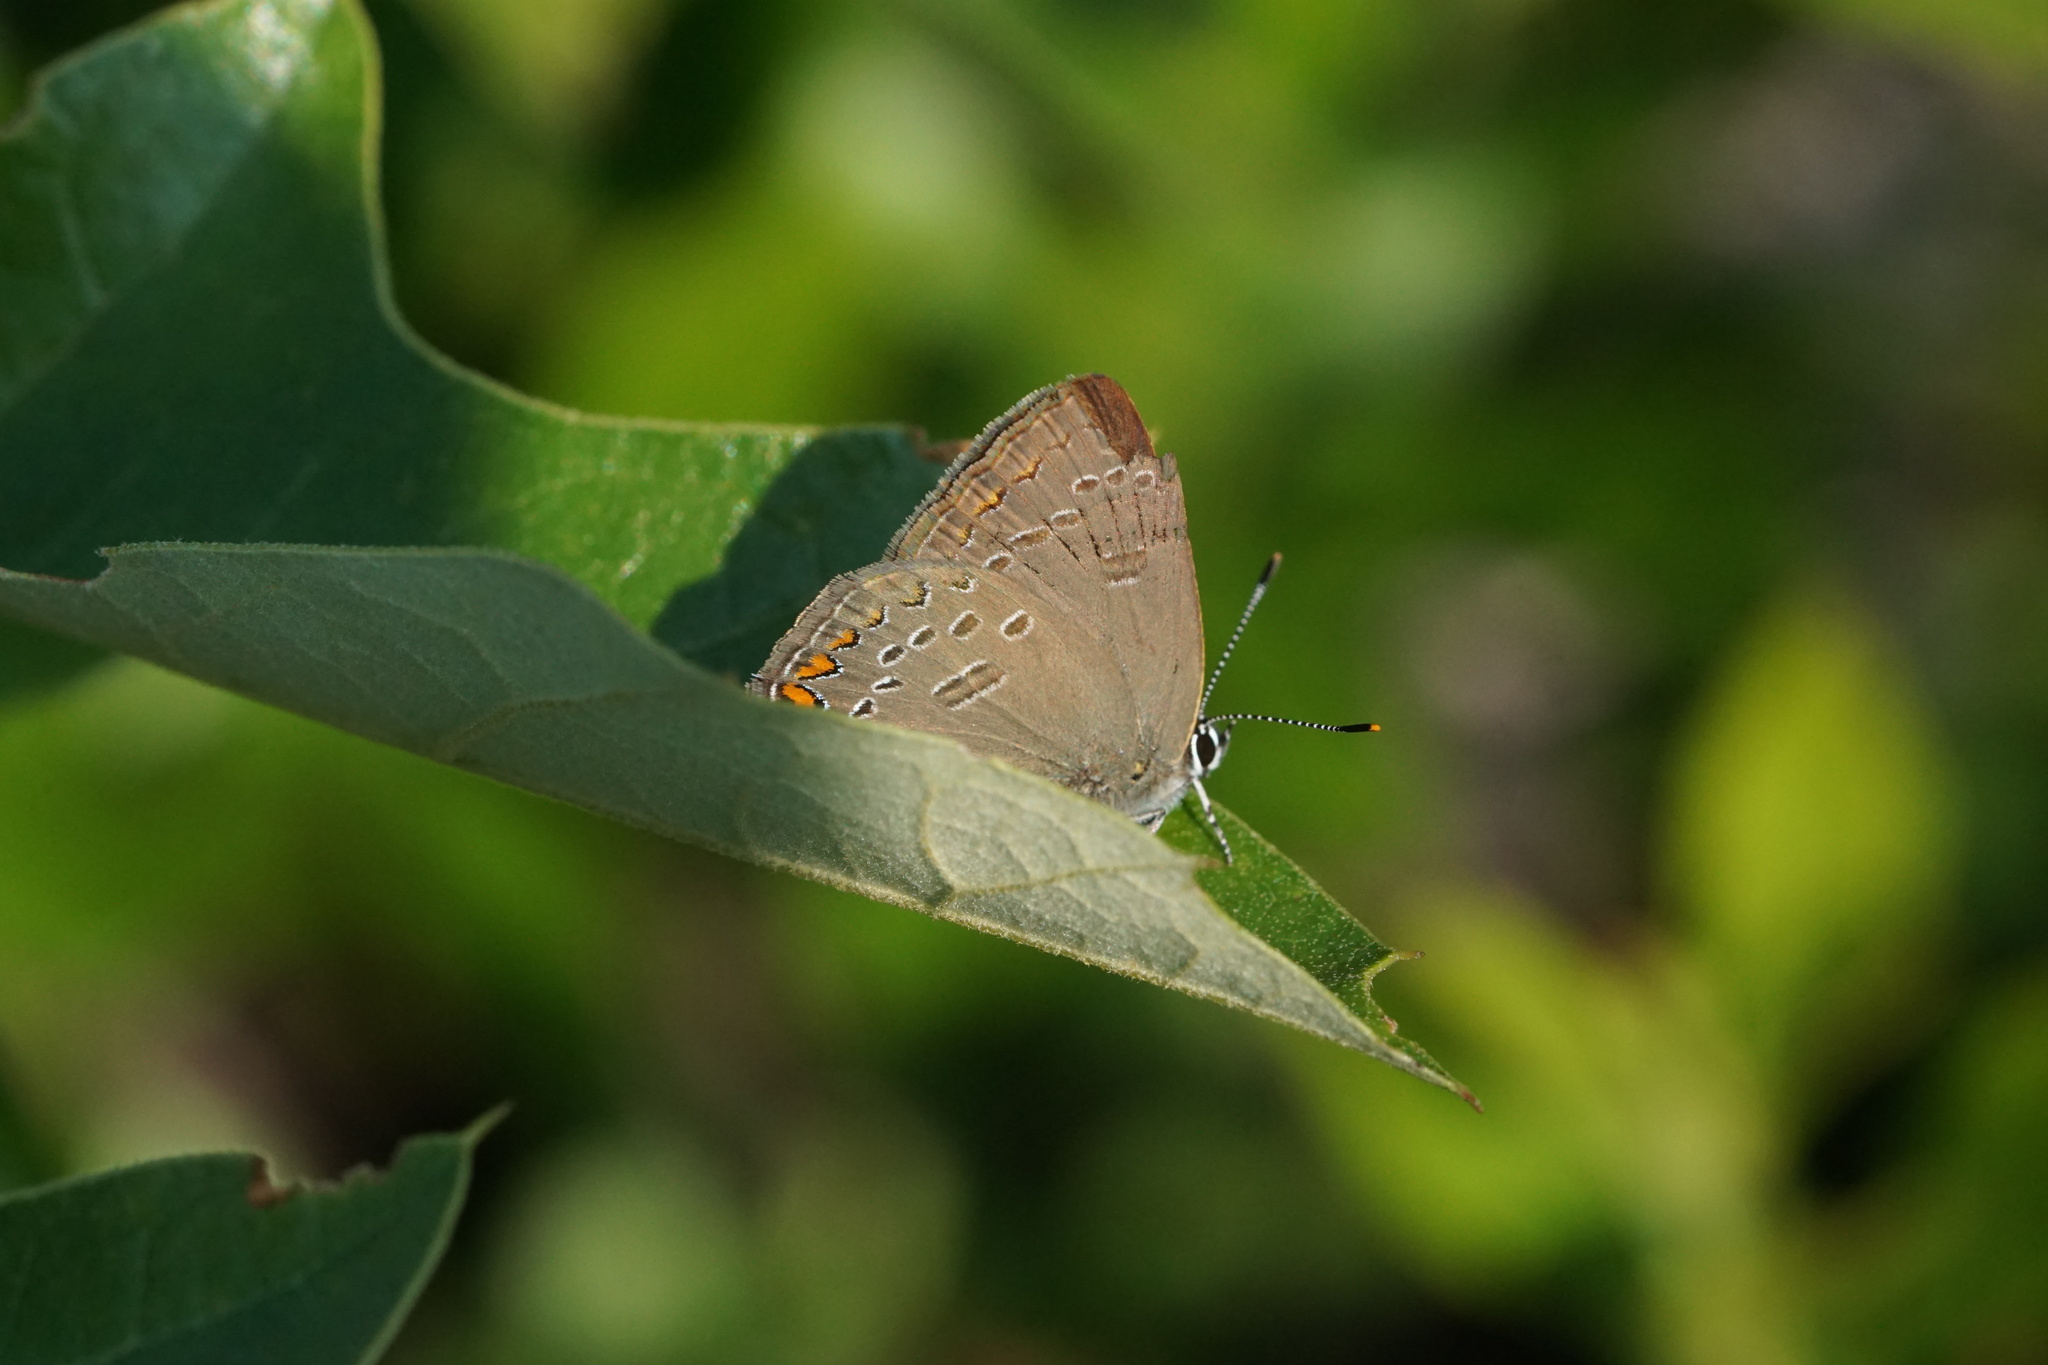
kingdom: Animalia
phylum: Arthropoda
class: Insecta
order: Lepidoptera
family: Lycaenidae
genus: Satyrium
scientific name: Satyrium edwardsii
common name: Edwards' hairstreak
